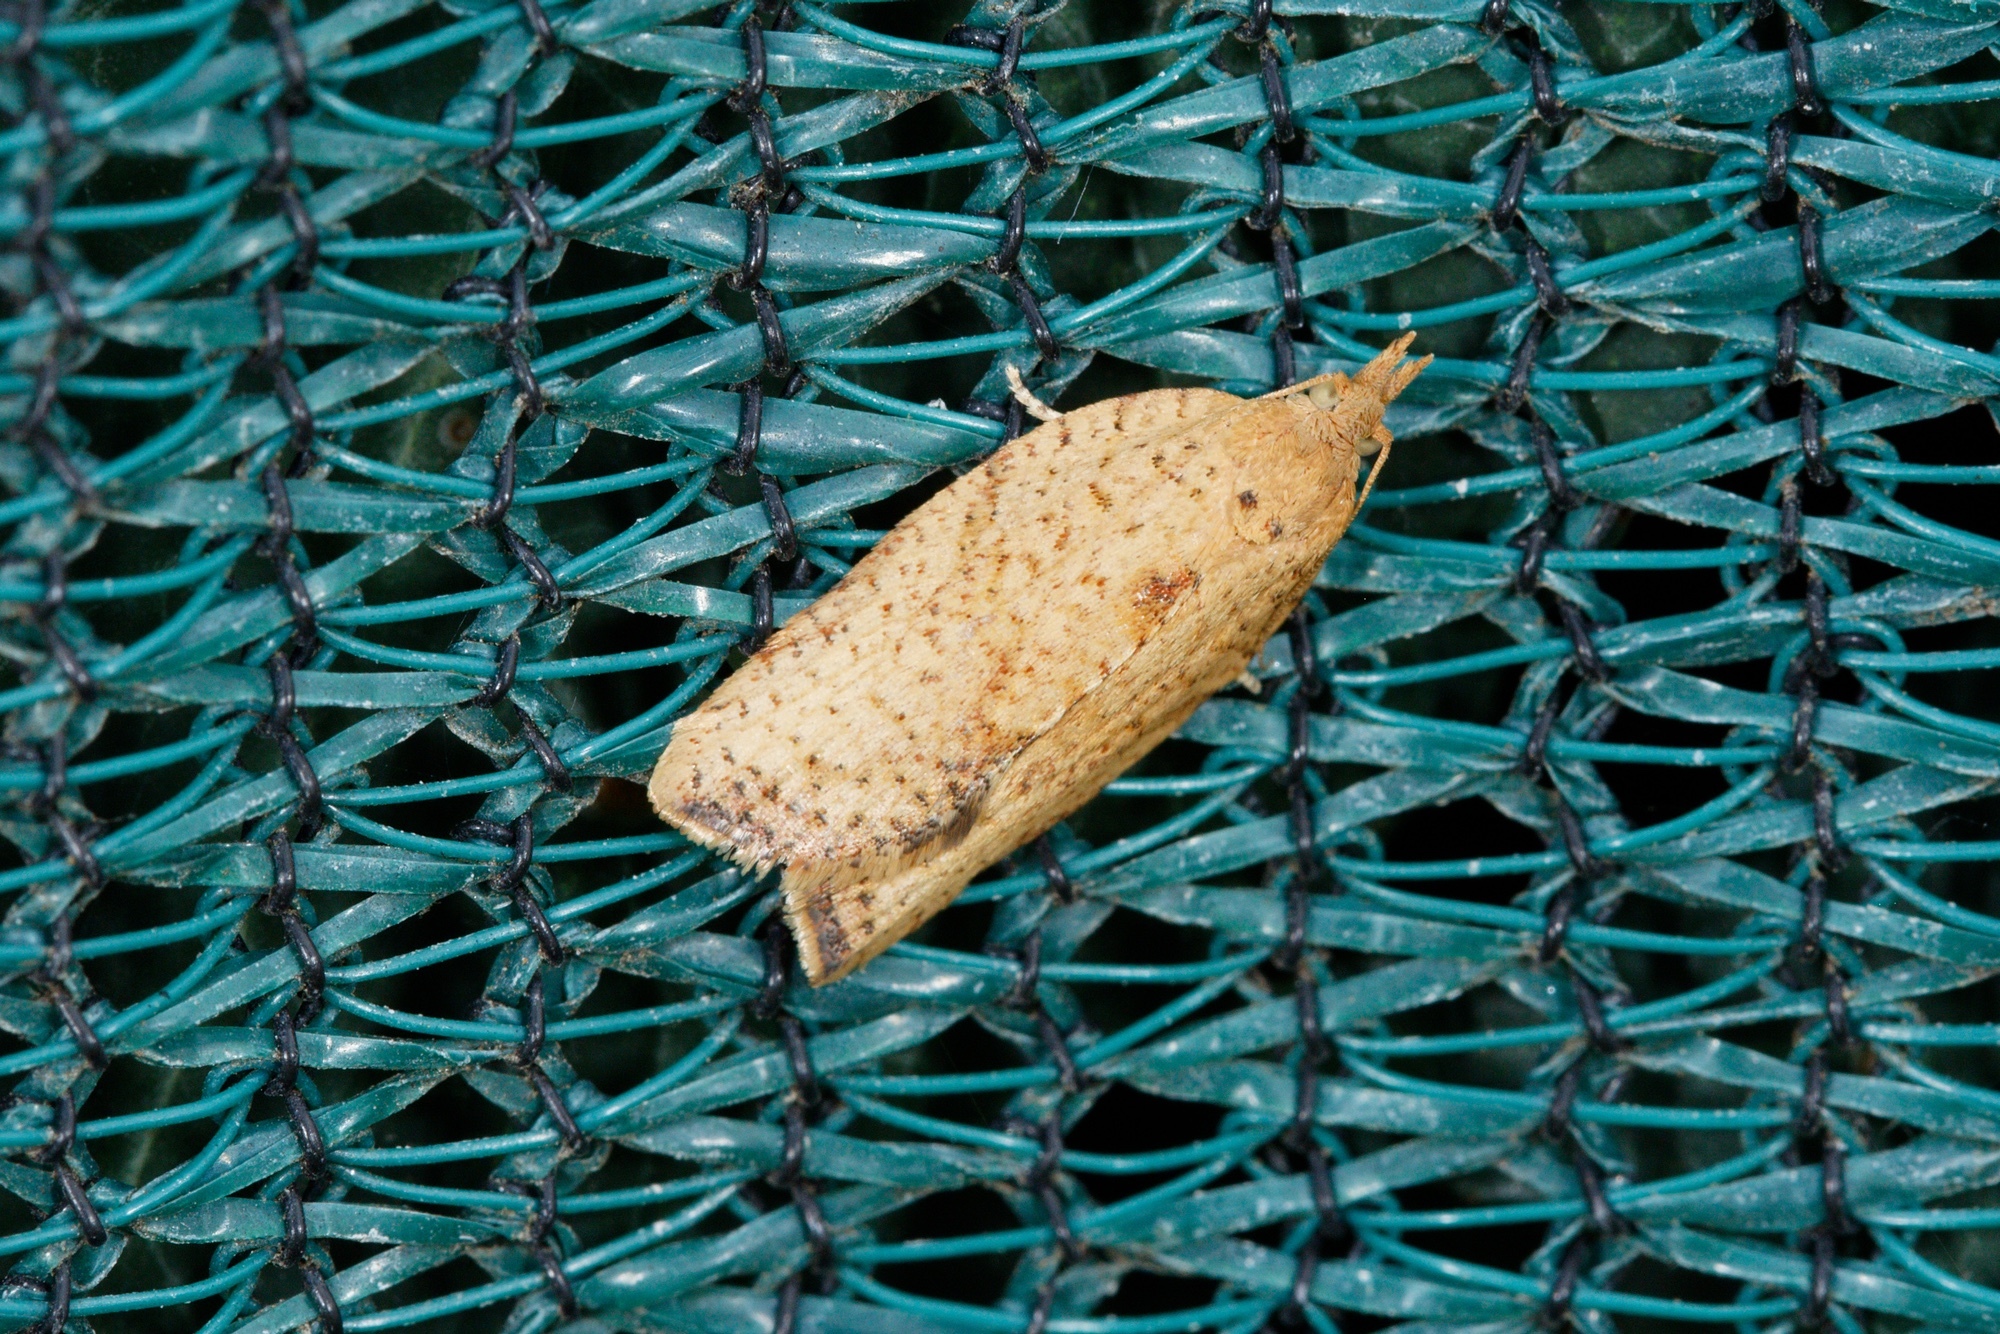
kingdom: Animalia
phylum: Arthropoda
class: Insecta
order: Lepidoptera
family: Tortricidae
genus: Epiphyas
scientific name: Epiphyas postvittana
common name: Light brown apple moth
